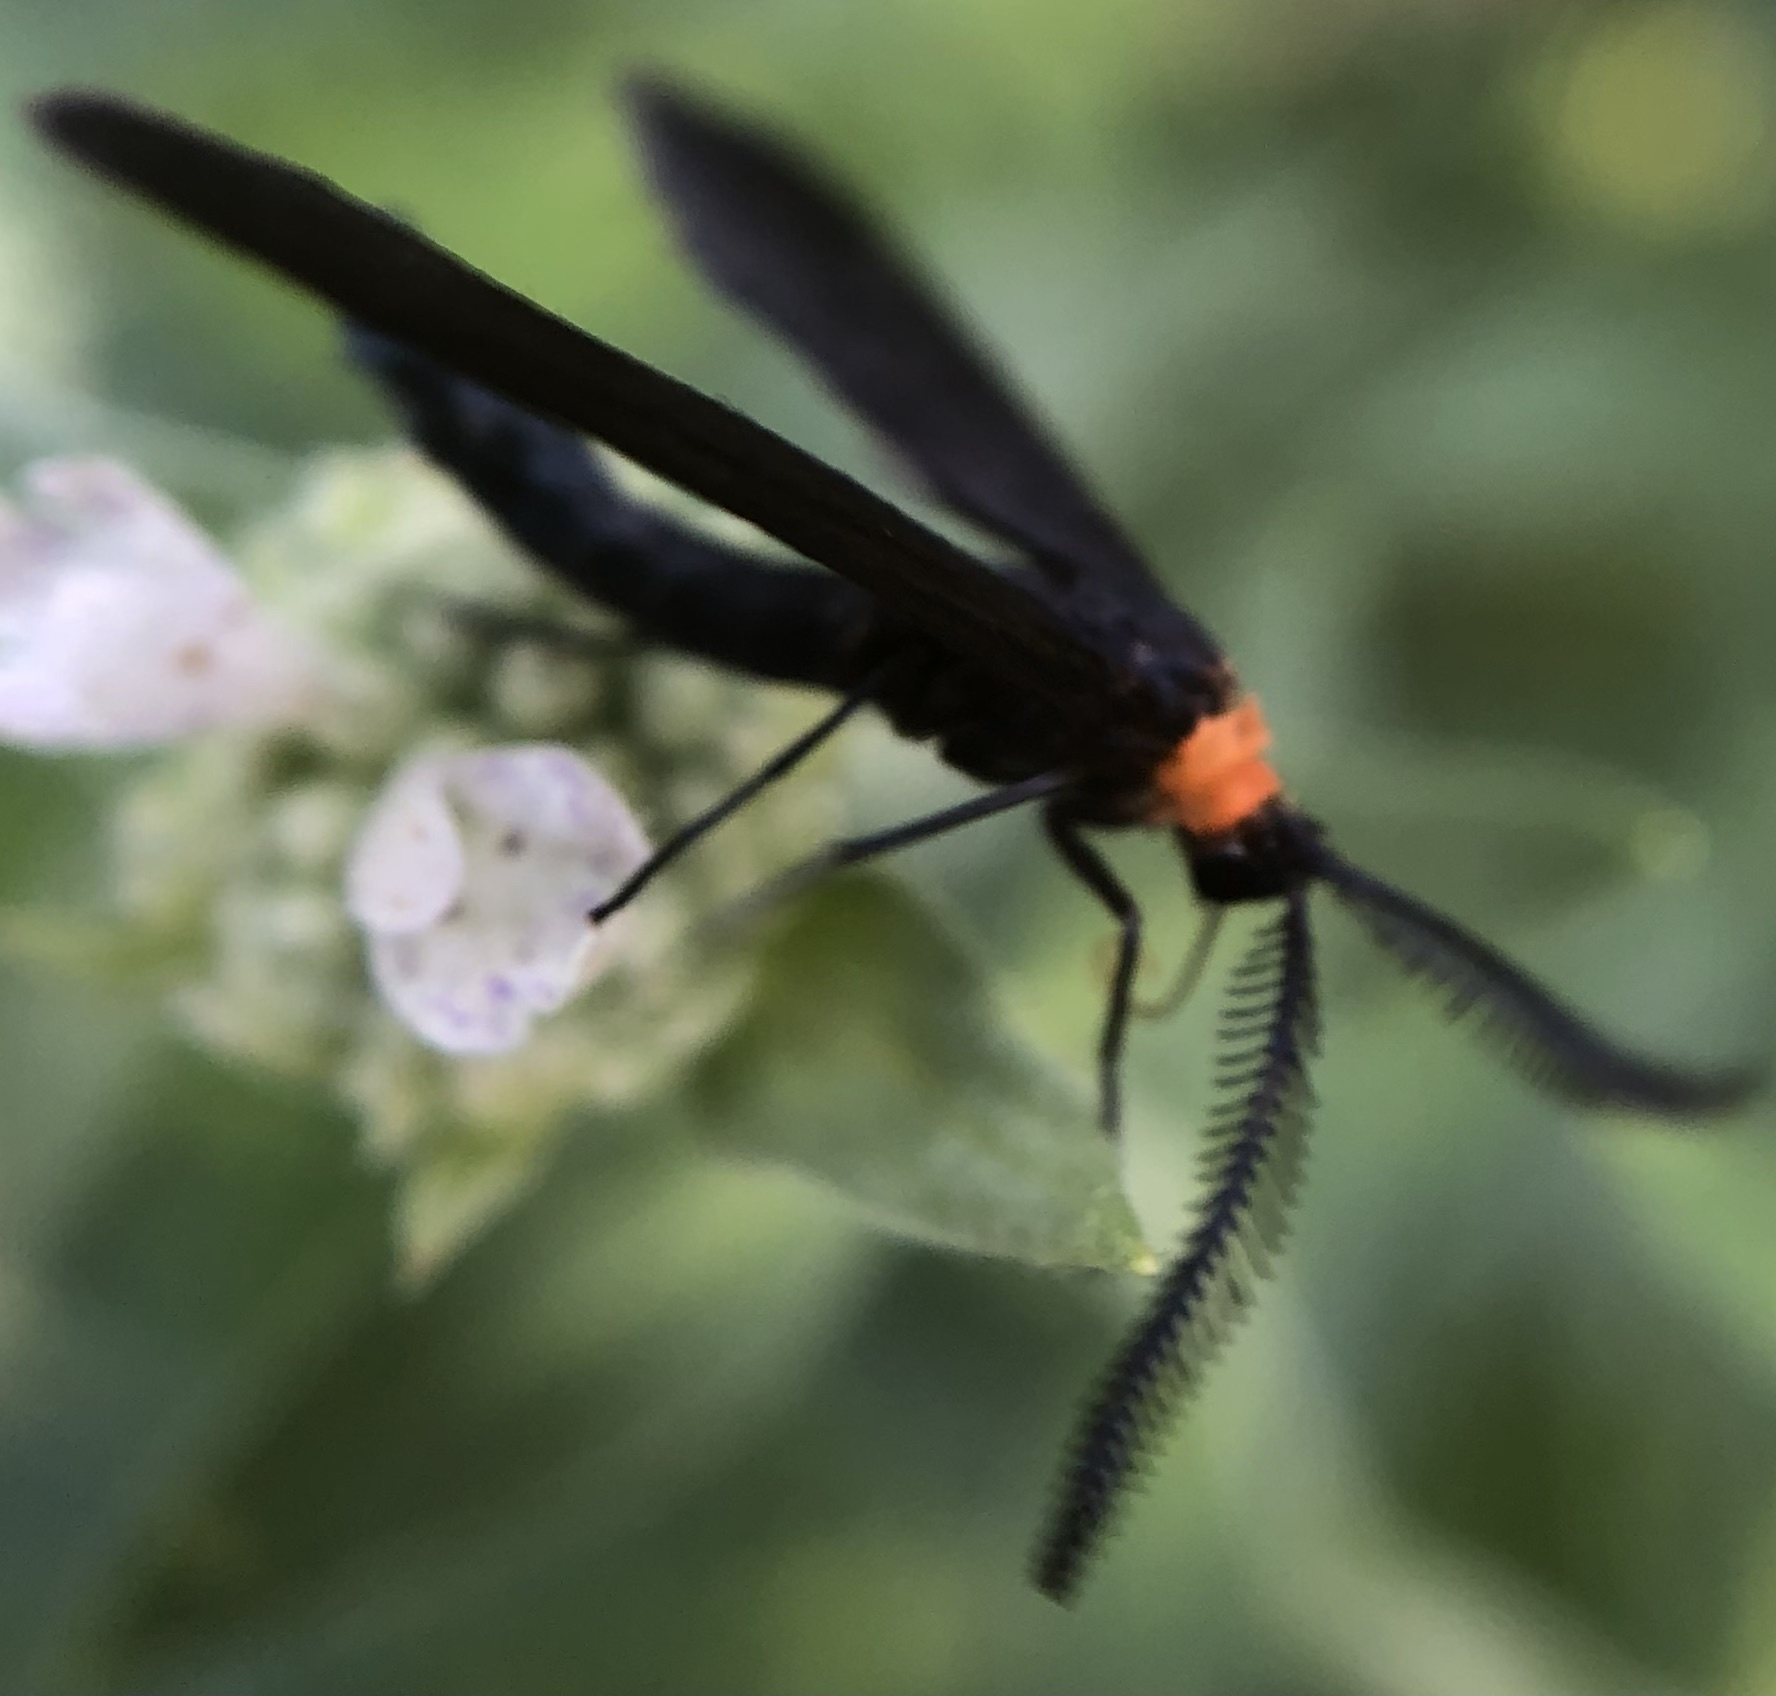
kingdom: Animalia
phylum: Arthropoda
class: Insecta
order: Lepidoptera
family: Zygaenidae
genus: Harrisina
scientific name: Harrisina americana
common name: Grapeleaf skeletonizer moth
